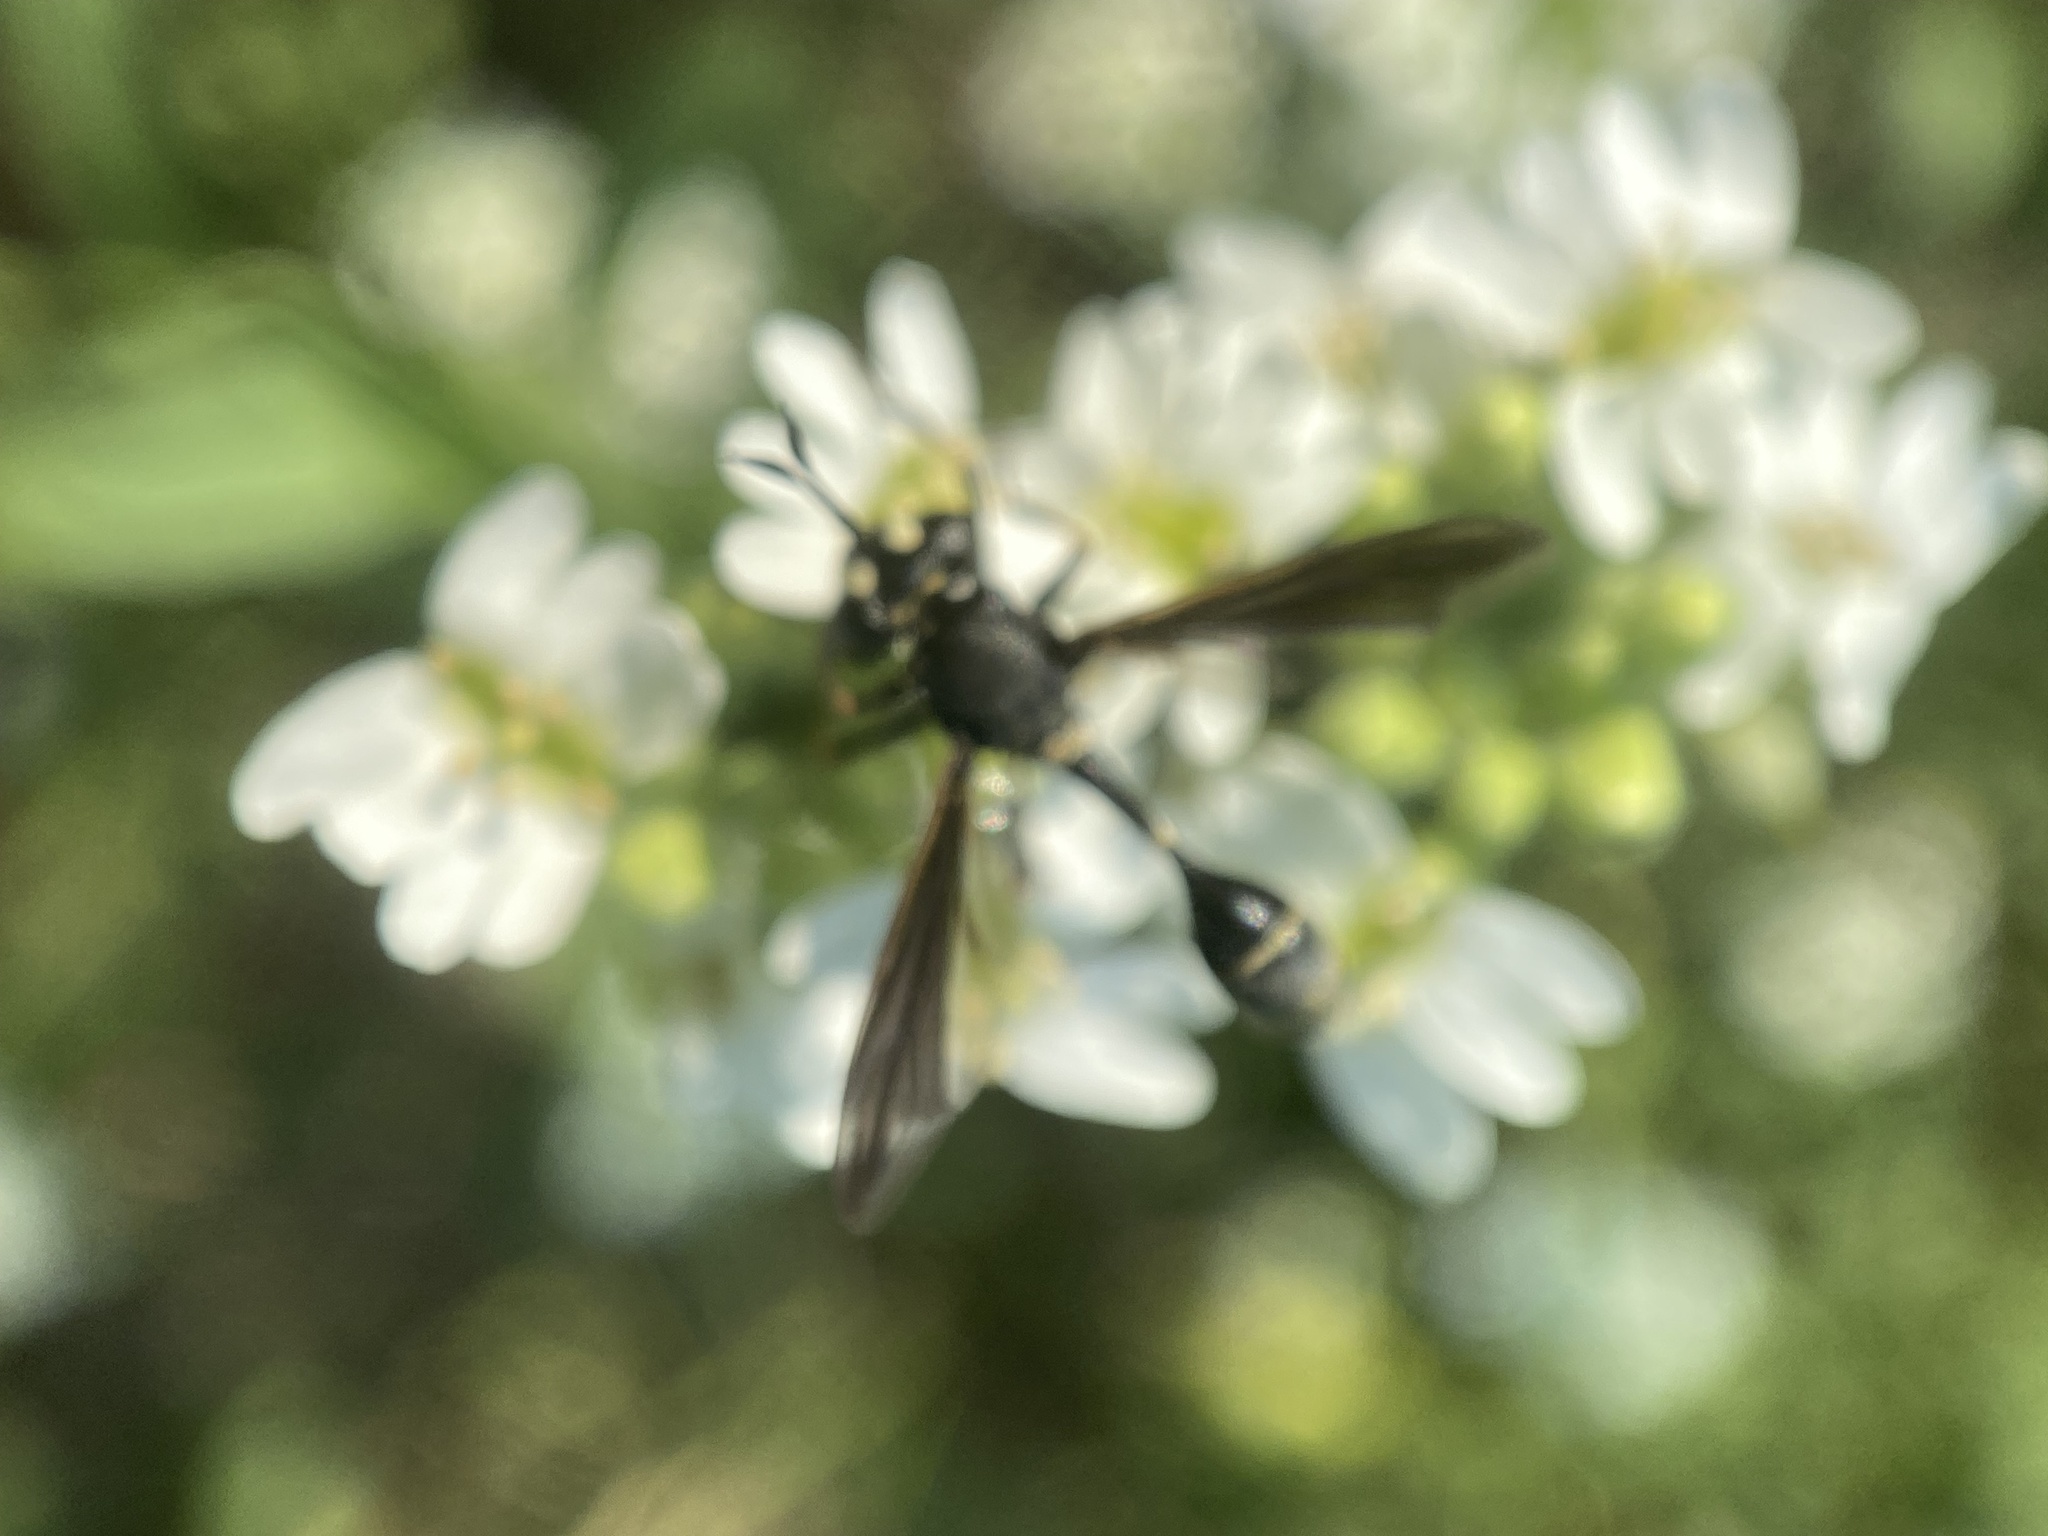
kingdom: Animalia
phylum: Arthropoda
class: Insecta
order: Diptera
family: Conopidae
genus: Physocephala
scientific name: Physocephala tibialis
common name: Common eastern physocephala
